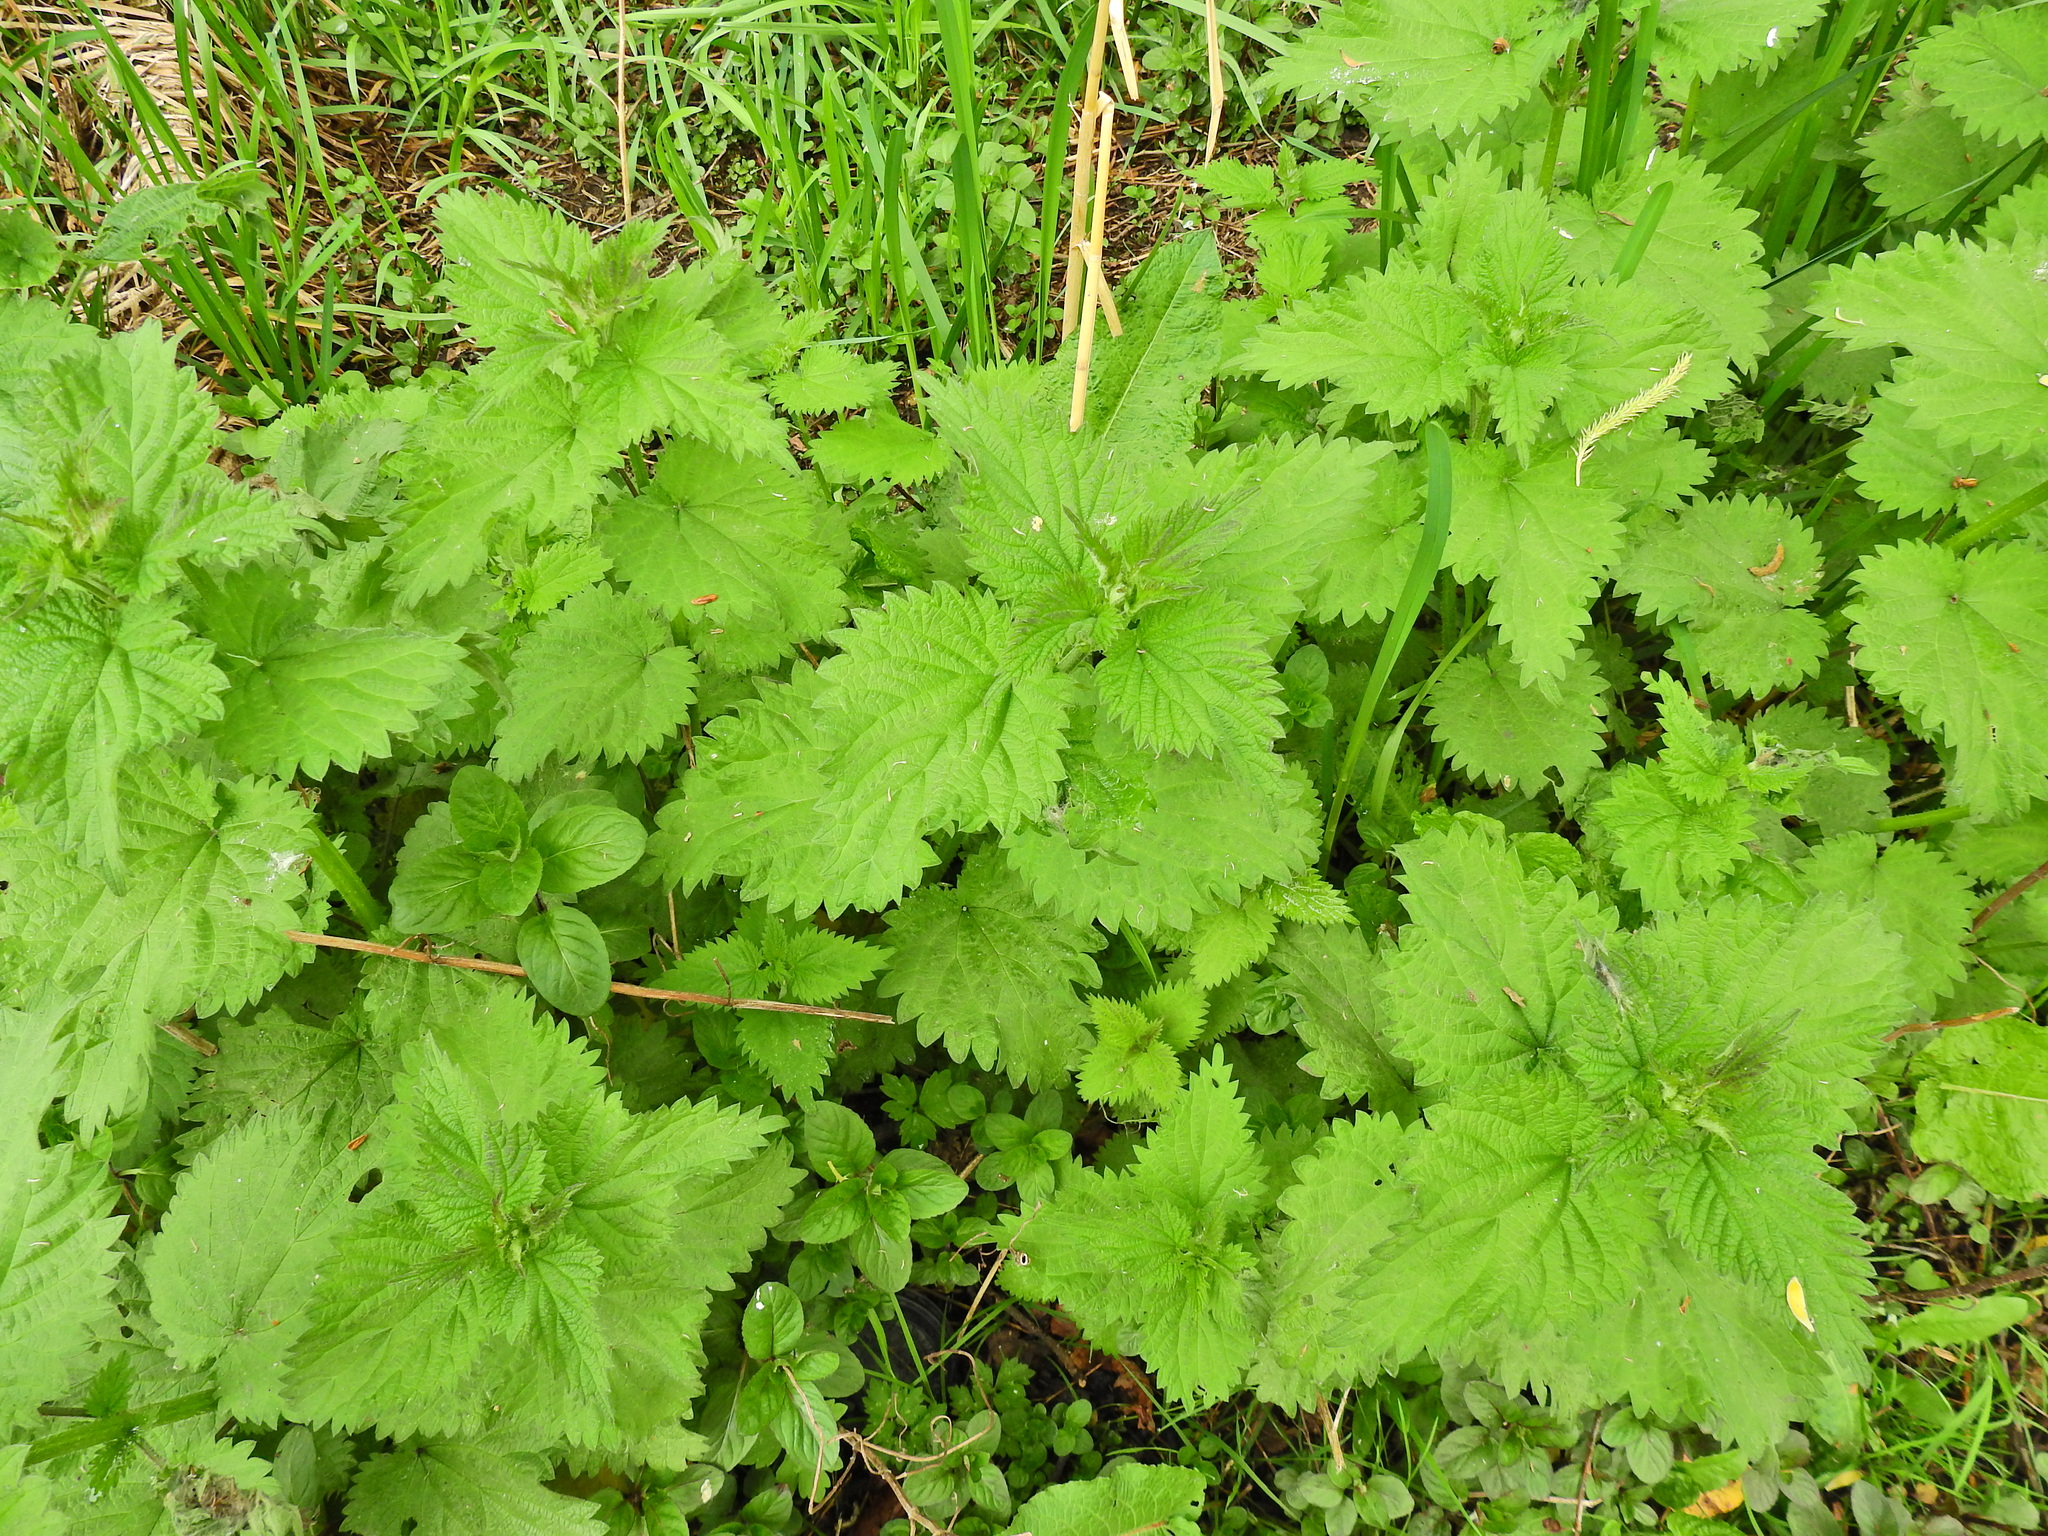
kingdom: Plantae
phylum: Tracheophyta
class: Magnoliopsida
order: Rosales
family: Urticaceae
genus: Urtica
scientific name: Urtica dioica
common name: Common nettle
